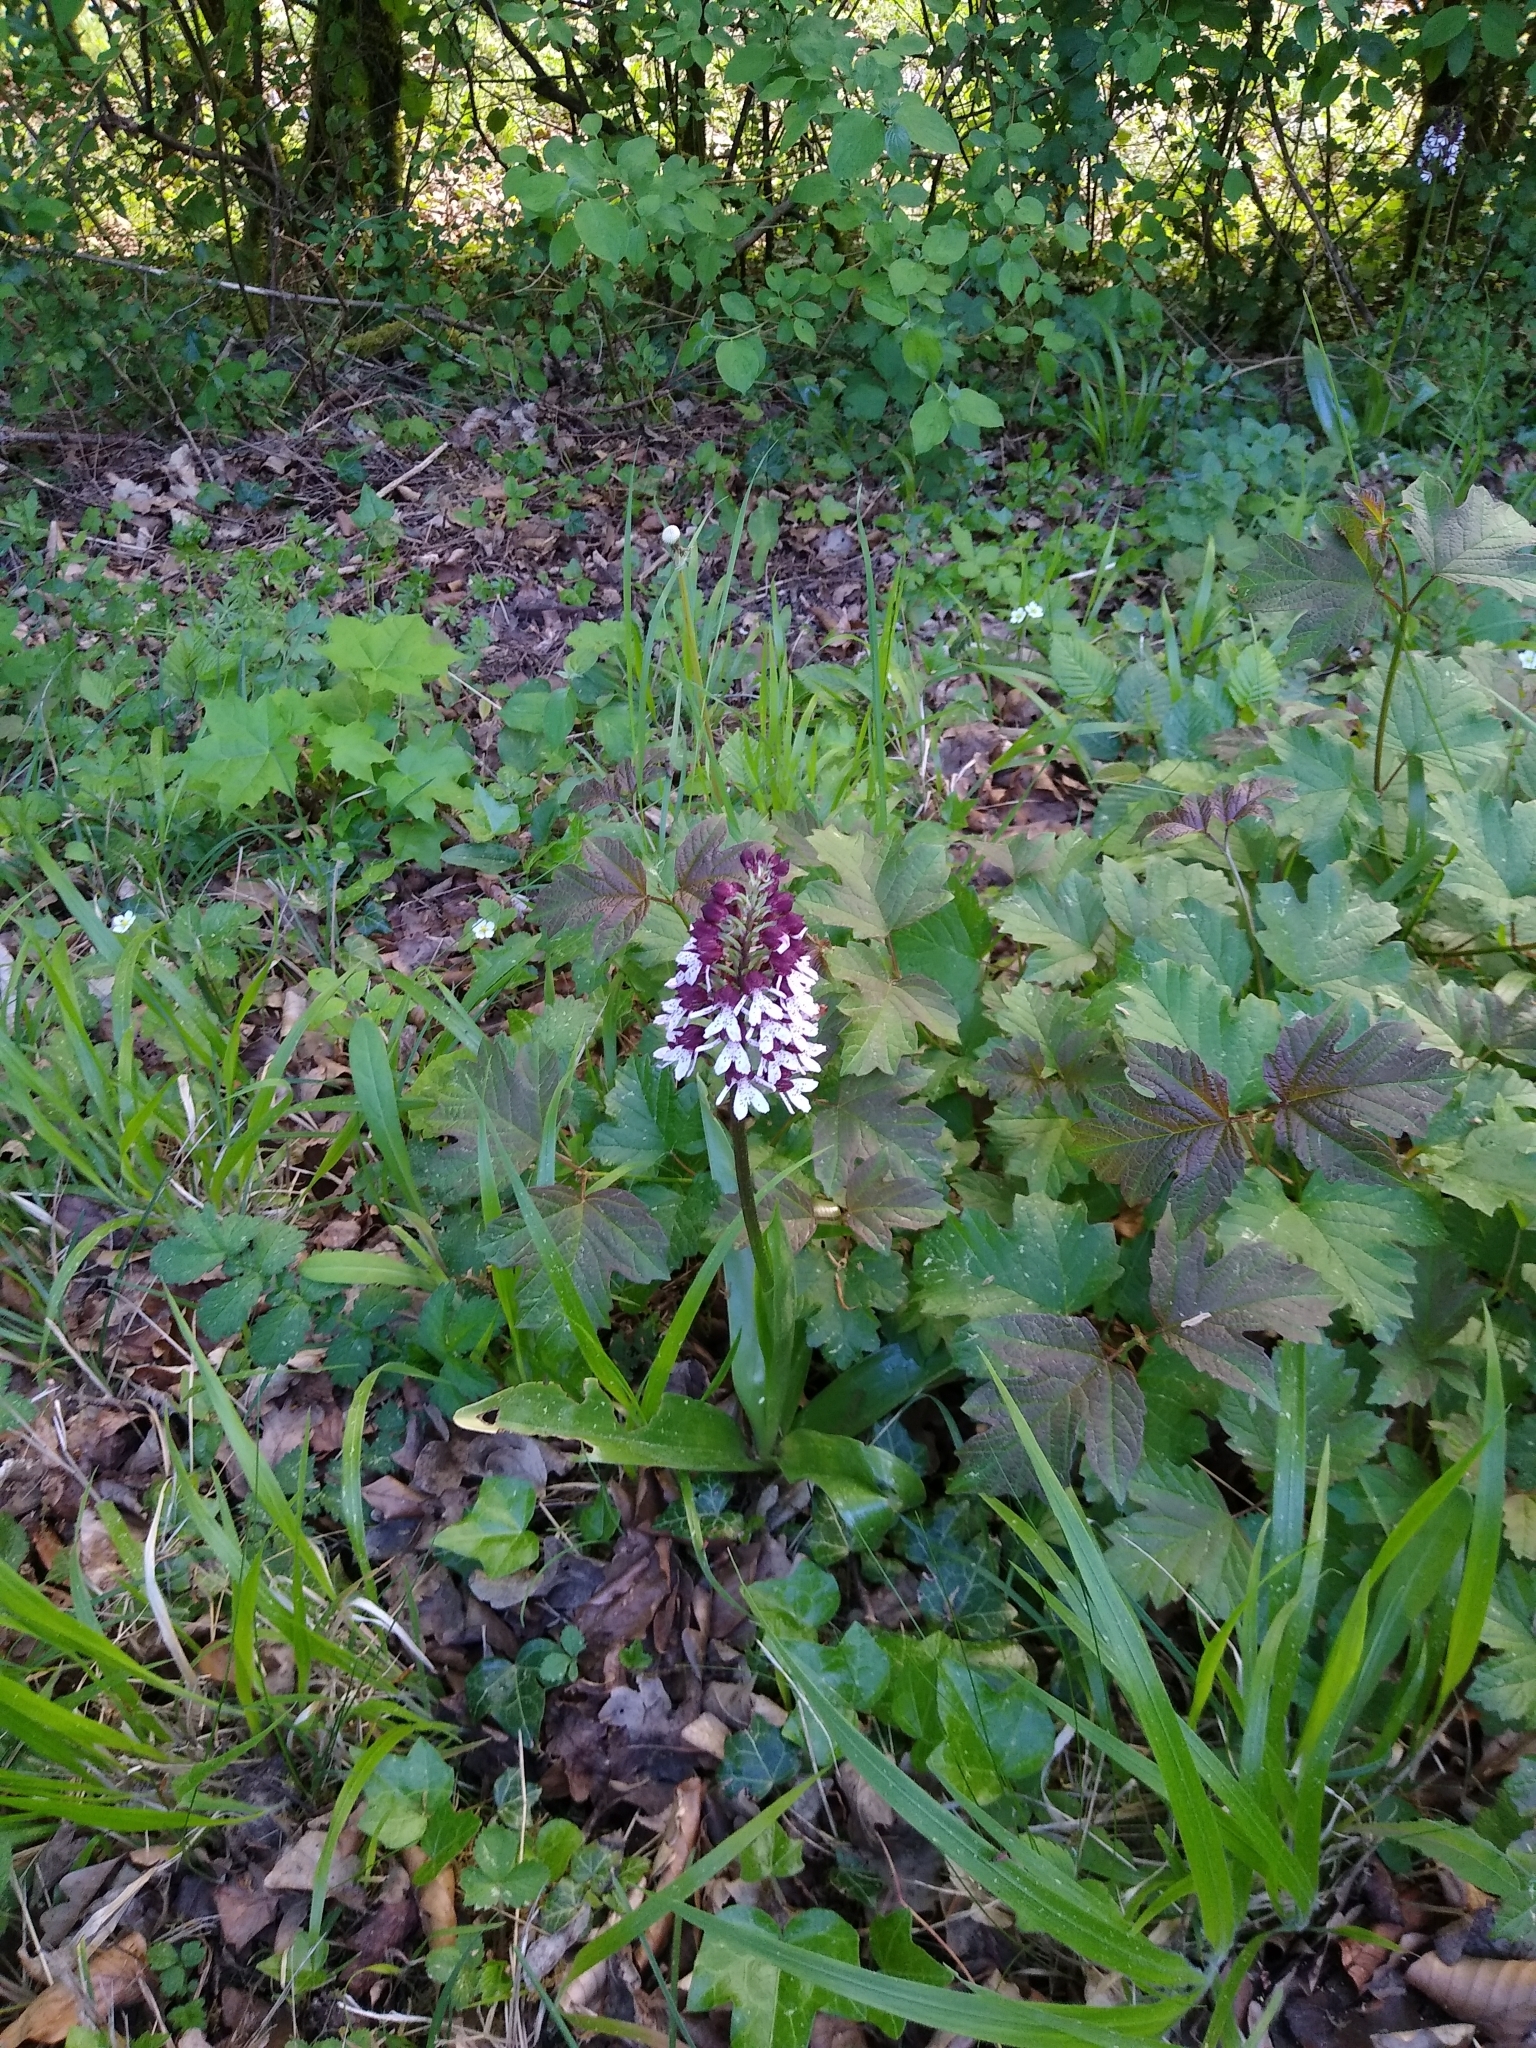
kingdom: Plantae
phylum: Tracheophyta
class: Liliopsida
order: Asparagales
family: Orchidaceae
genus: Orchis
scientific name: Orchis purpurea
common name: Lady orchid
